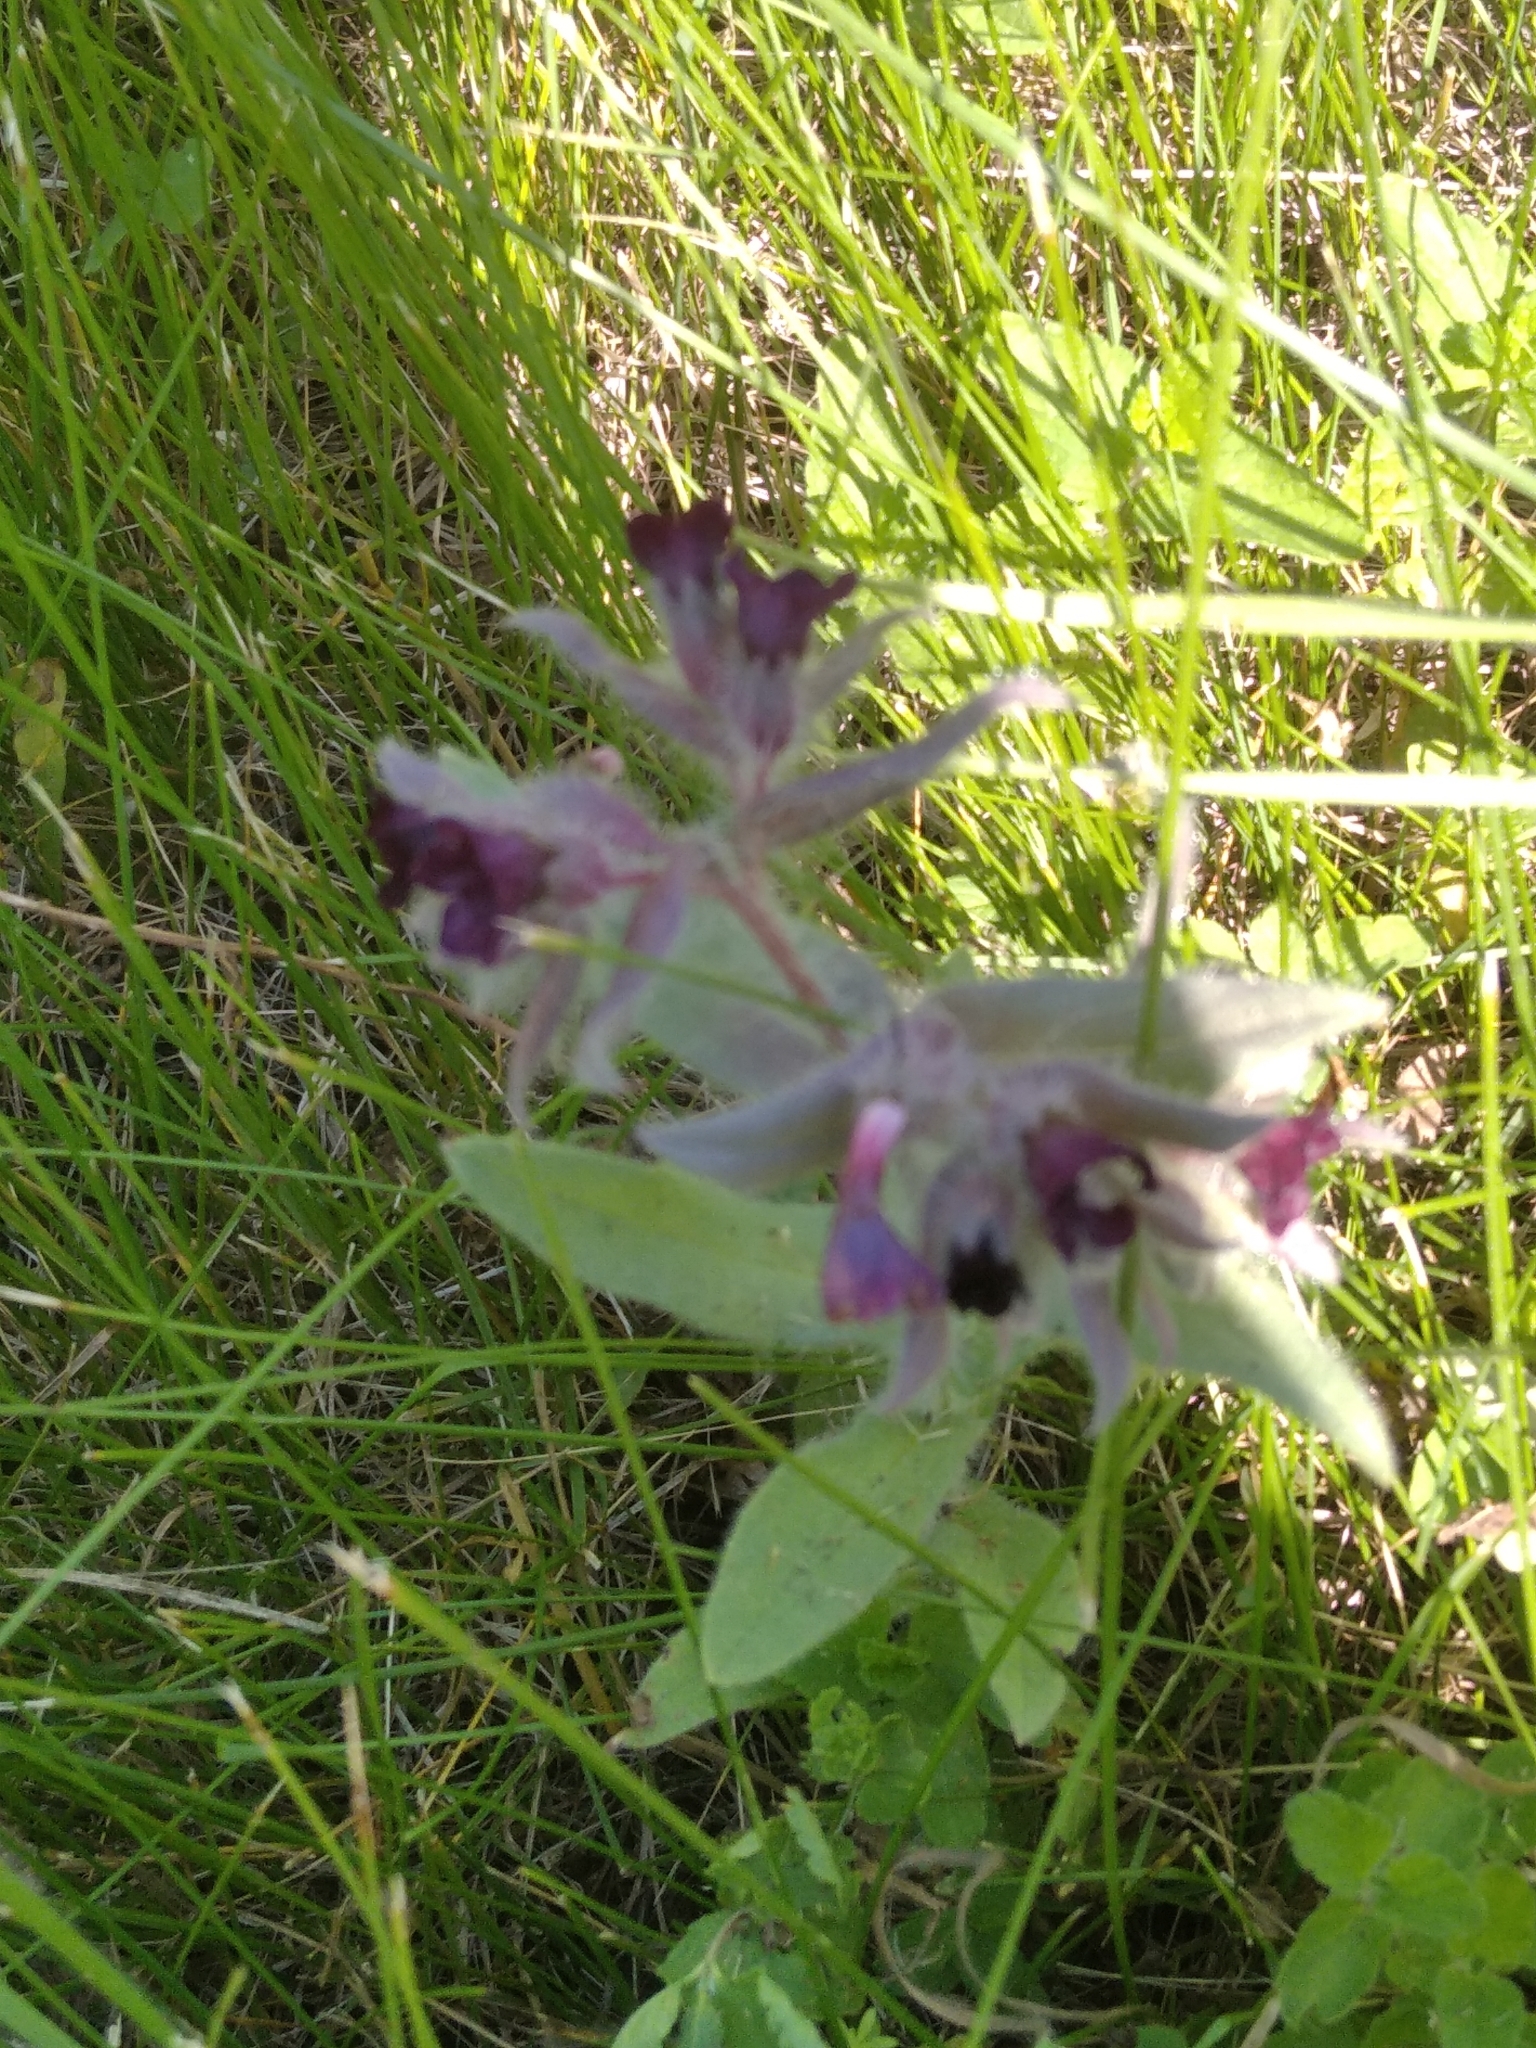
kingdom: Plantae
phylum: Tracheophyta
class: Magnoliopsida
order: Boraginales
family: Boraginaceae
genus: Nonea
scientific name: Nonea pulla
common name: Brown nonea
